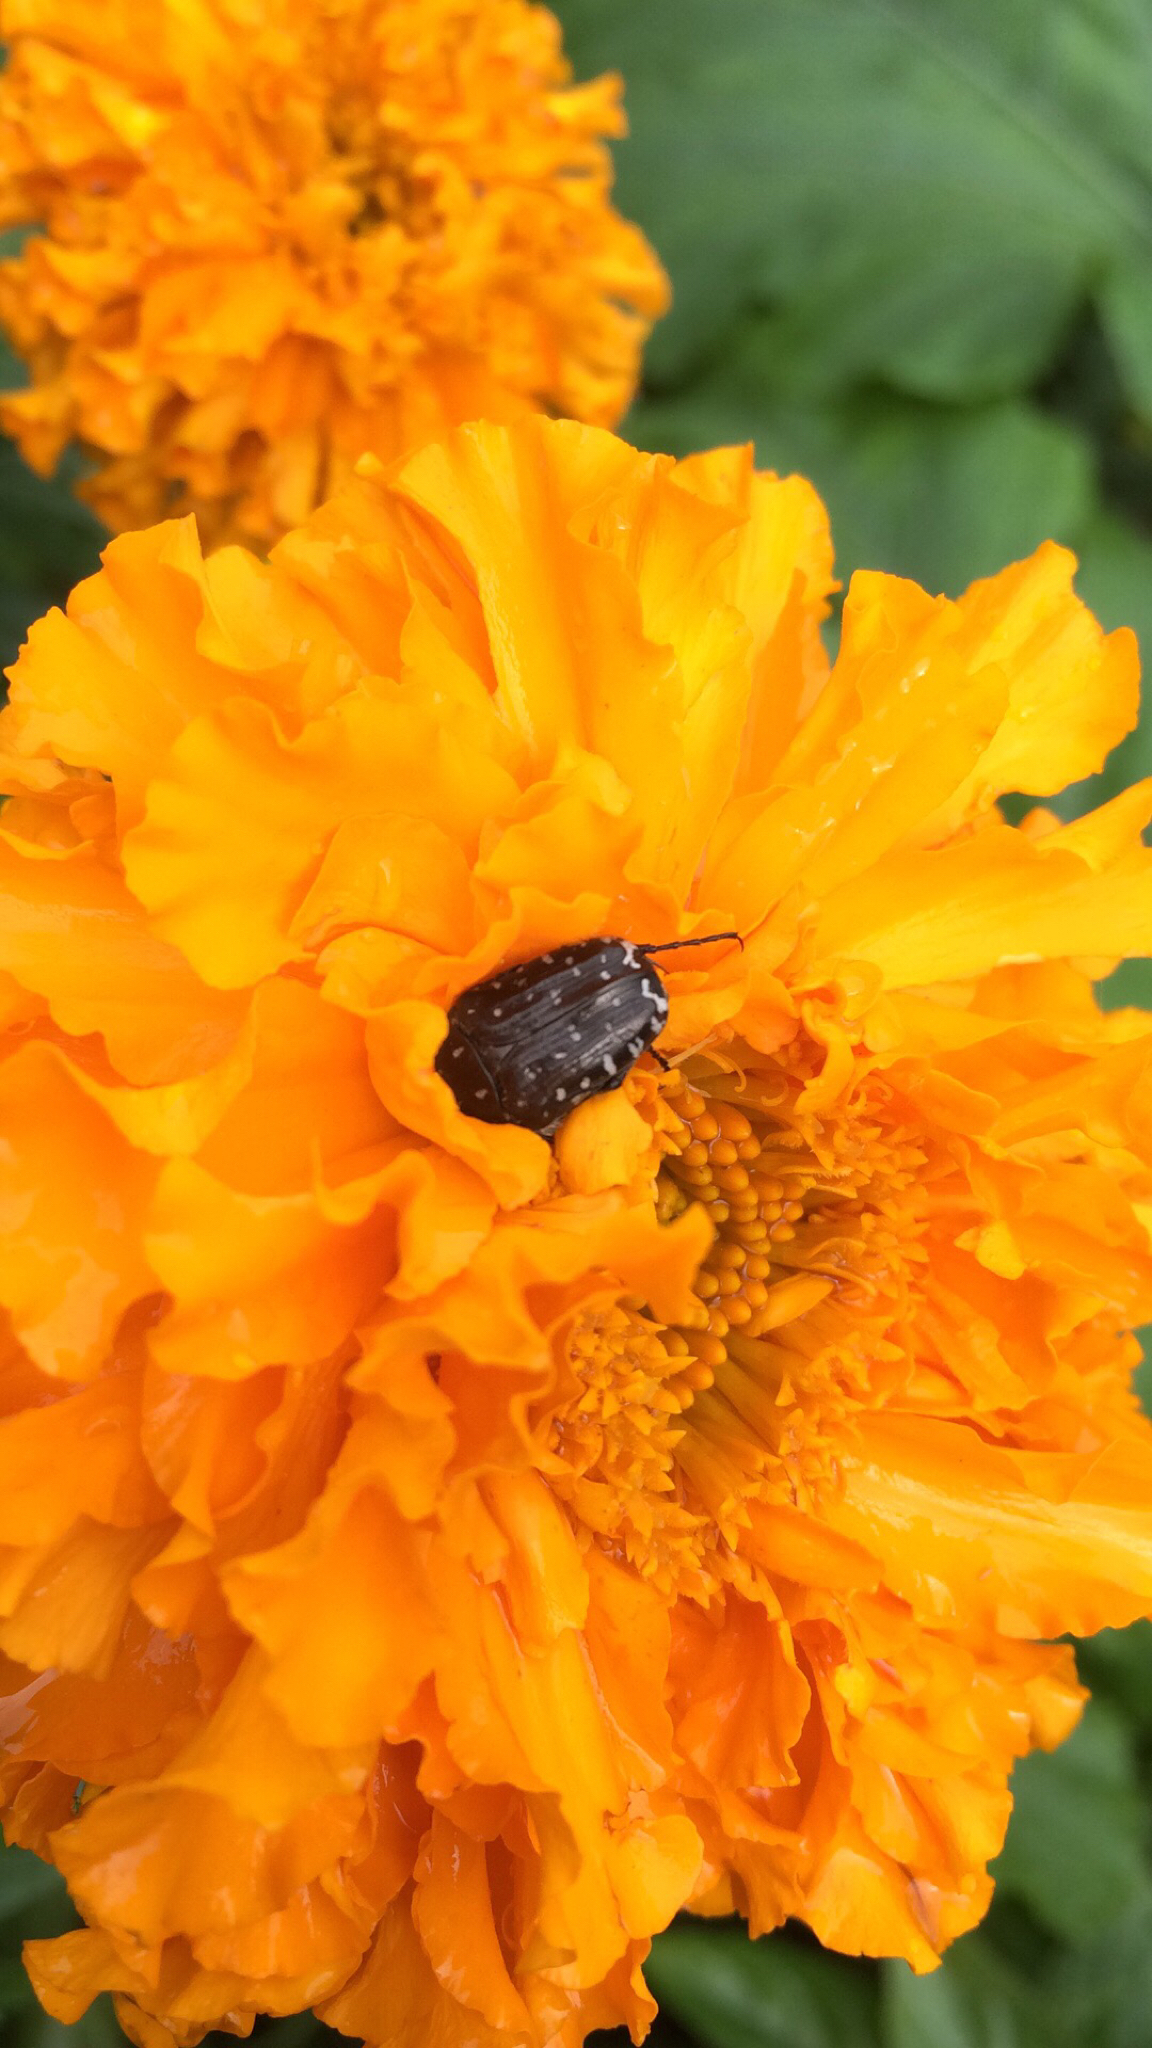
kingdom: Animalia
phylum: Arthropoda
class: Insecta
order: Coleoptera
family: Scarabaeidae
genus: Oxythyrea
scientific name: Oxythyrea funesta
